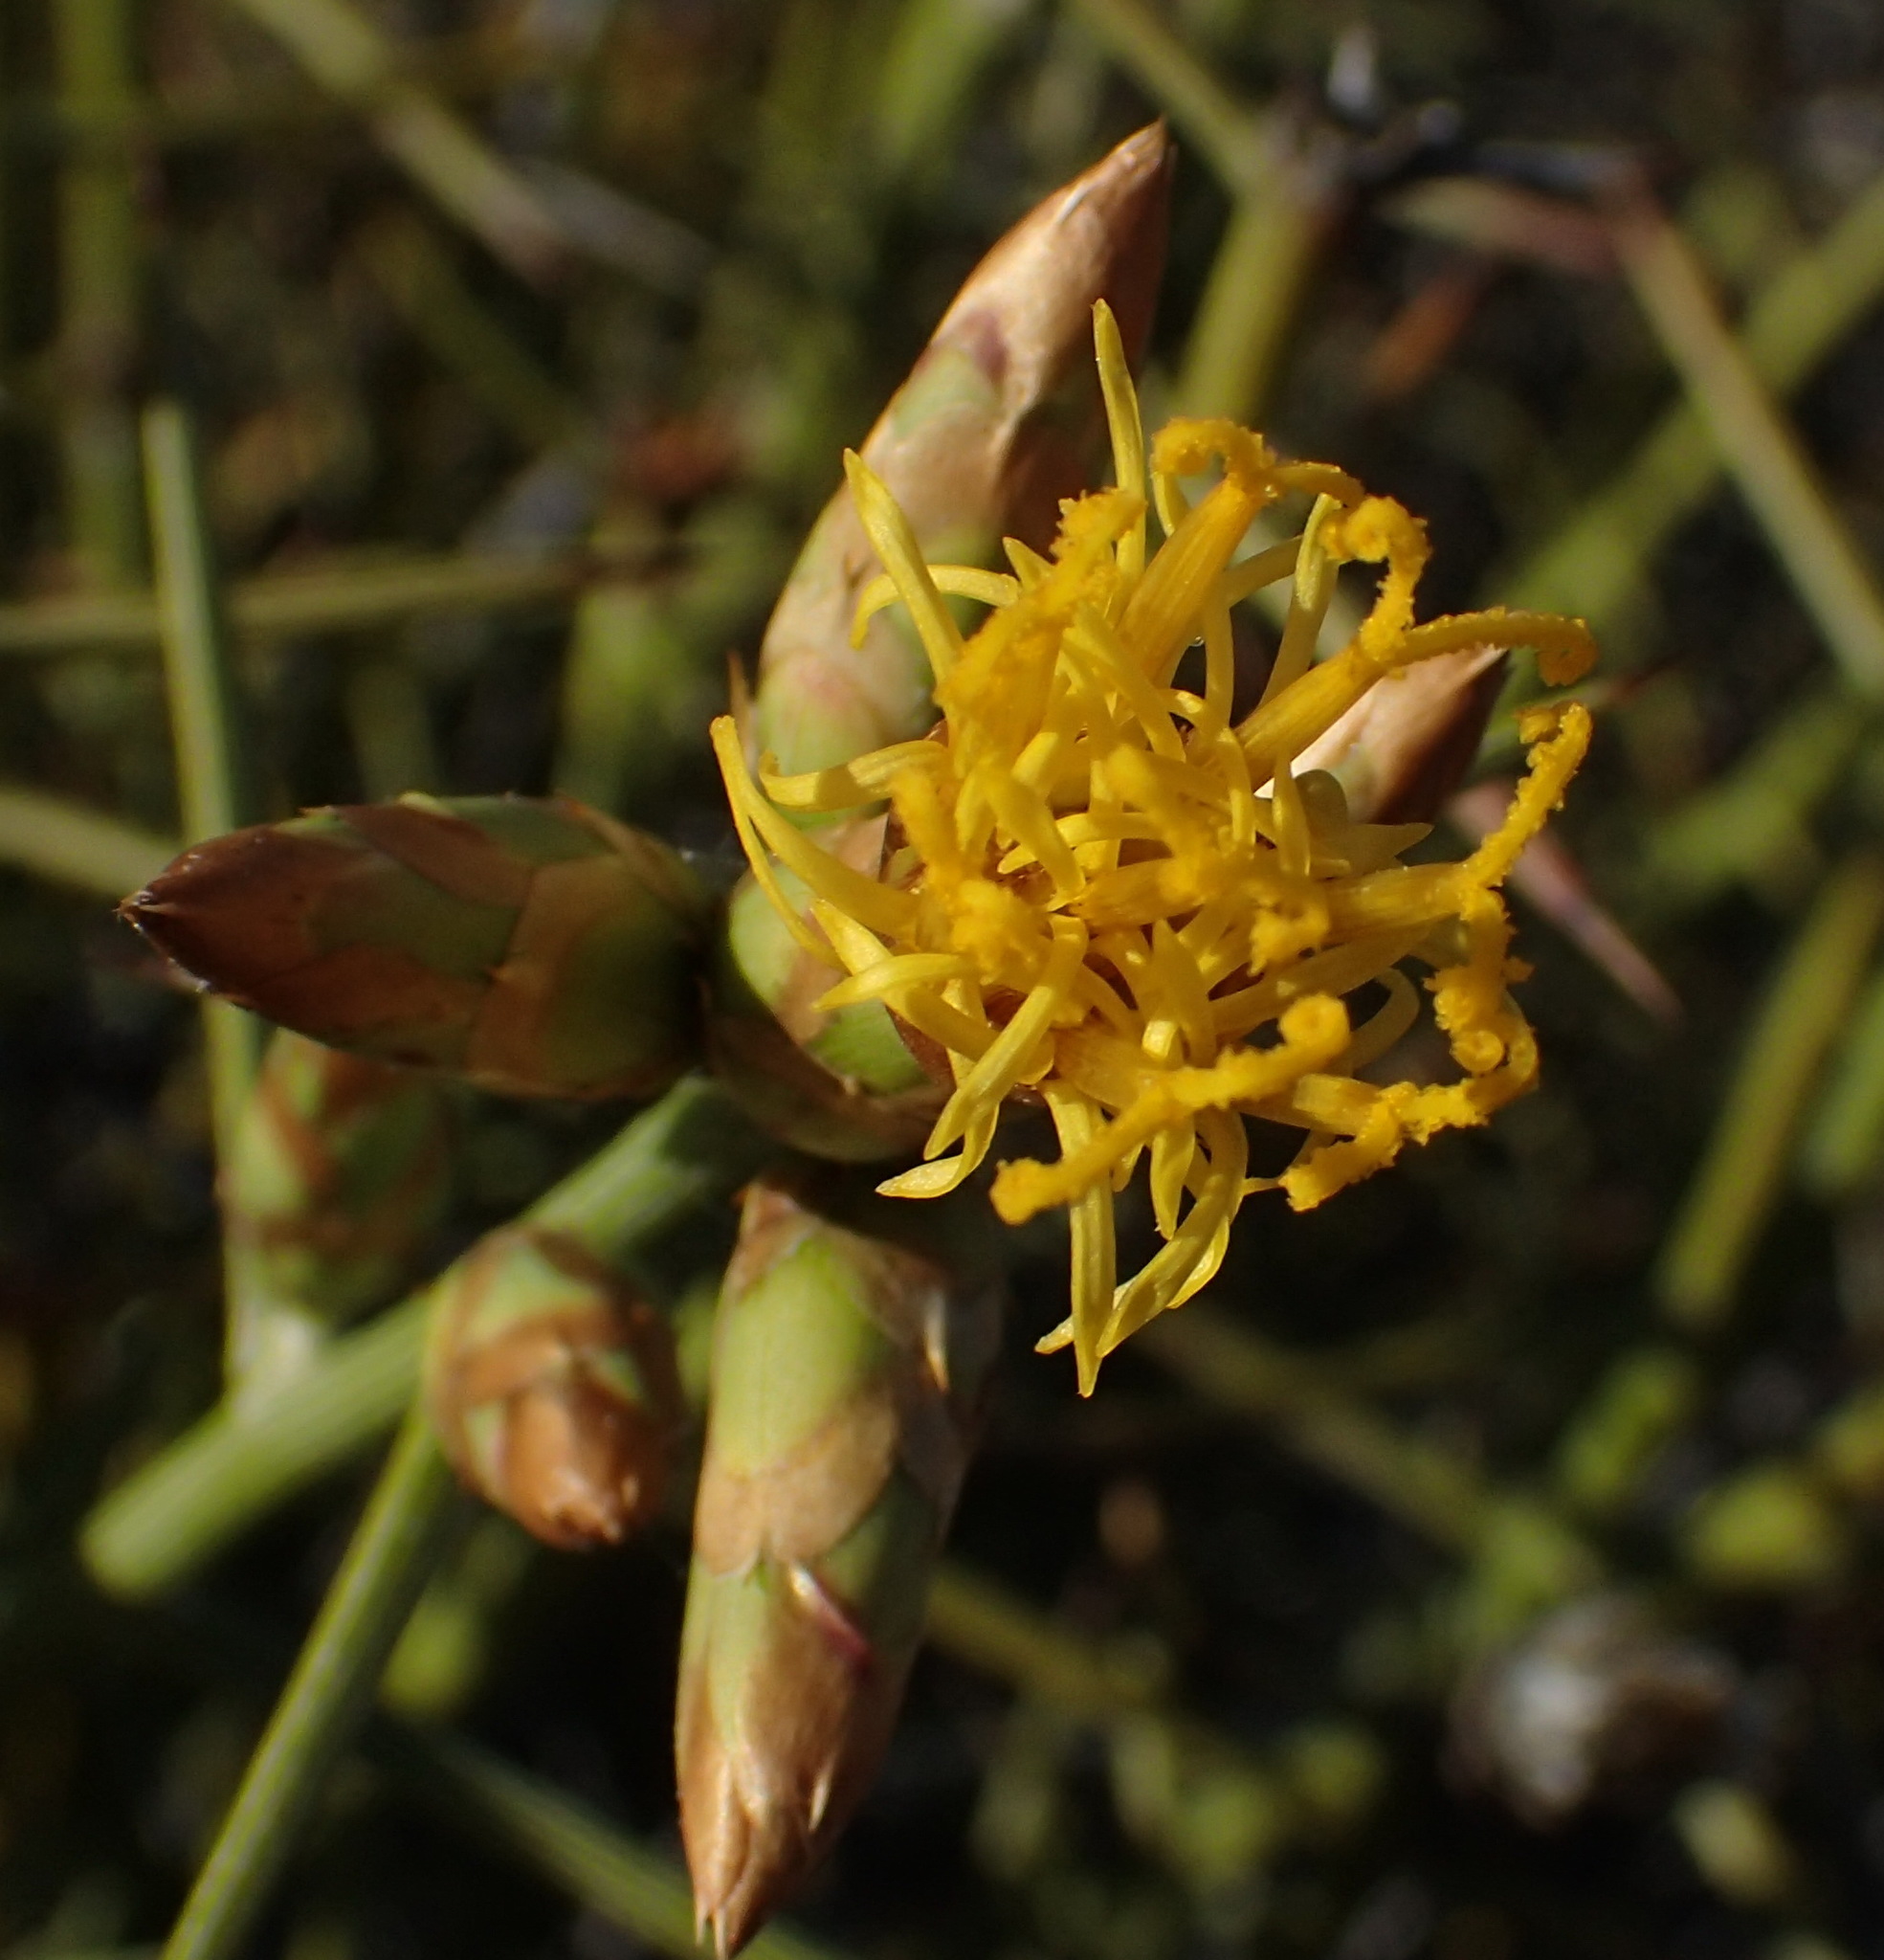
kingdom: Plantae
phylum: Tracheophyta
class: Magnoliopsida
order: Asterales
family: Asteraceae
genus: Hoplophyllum
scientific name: Hoplophyllum spinosum
